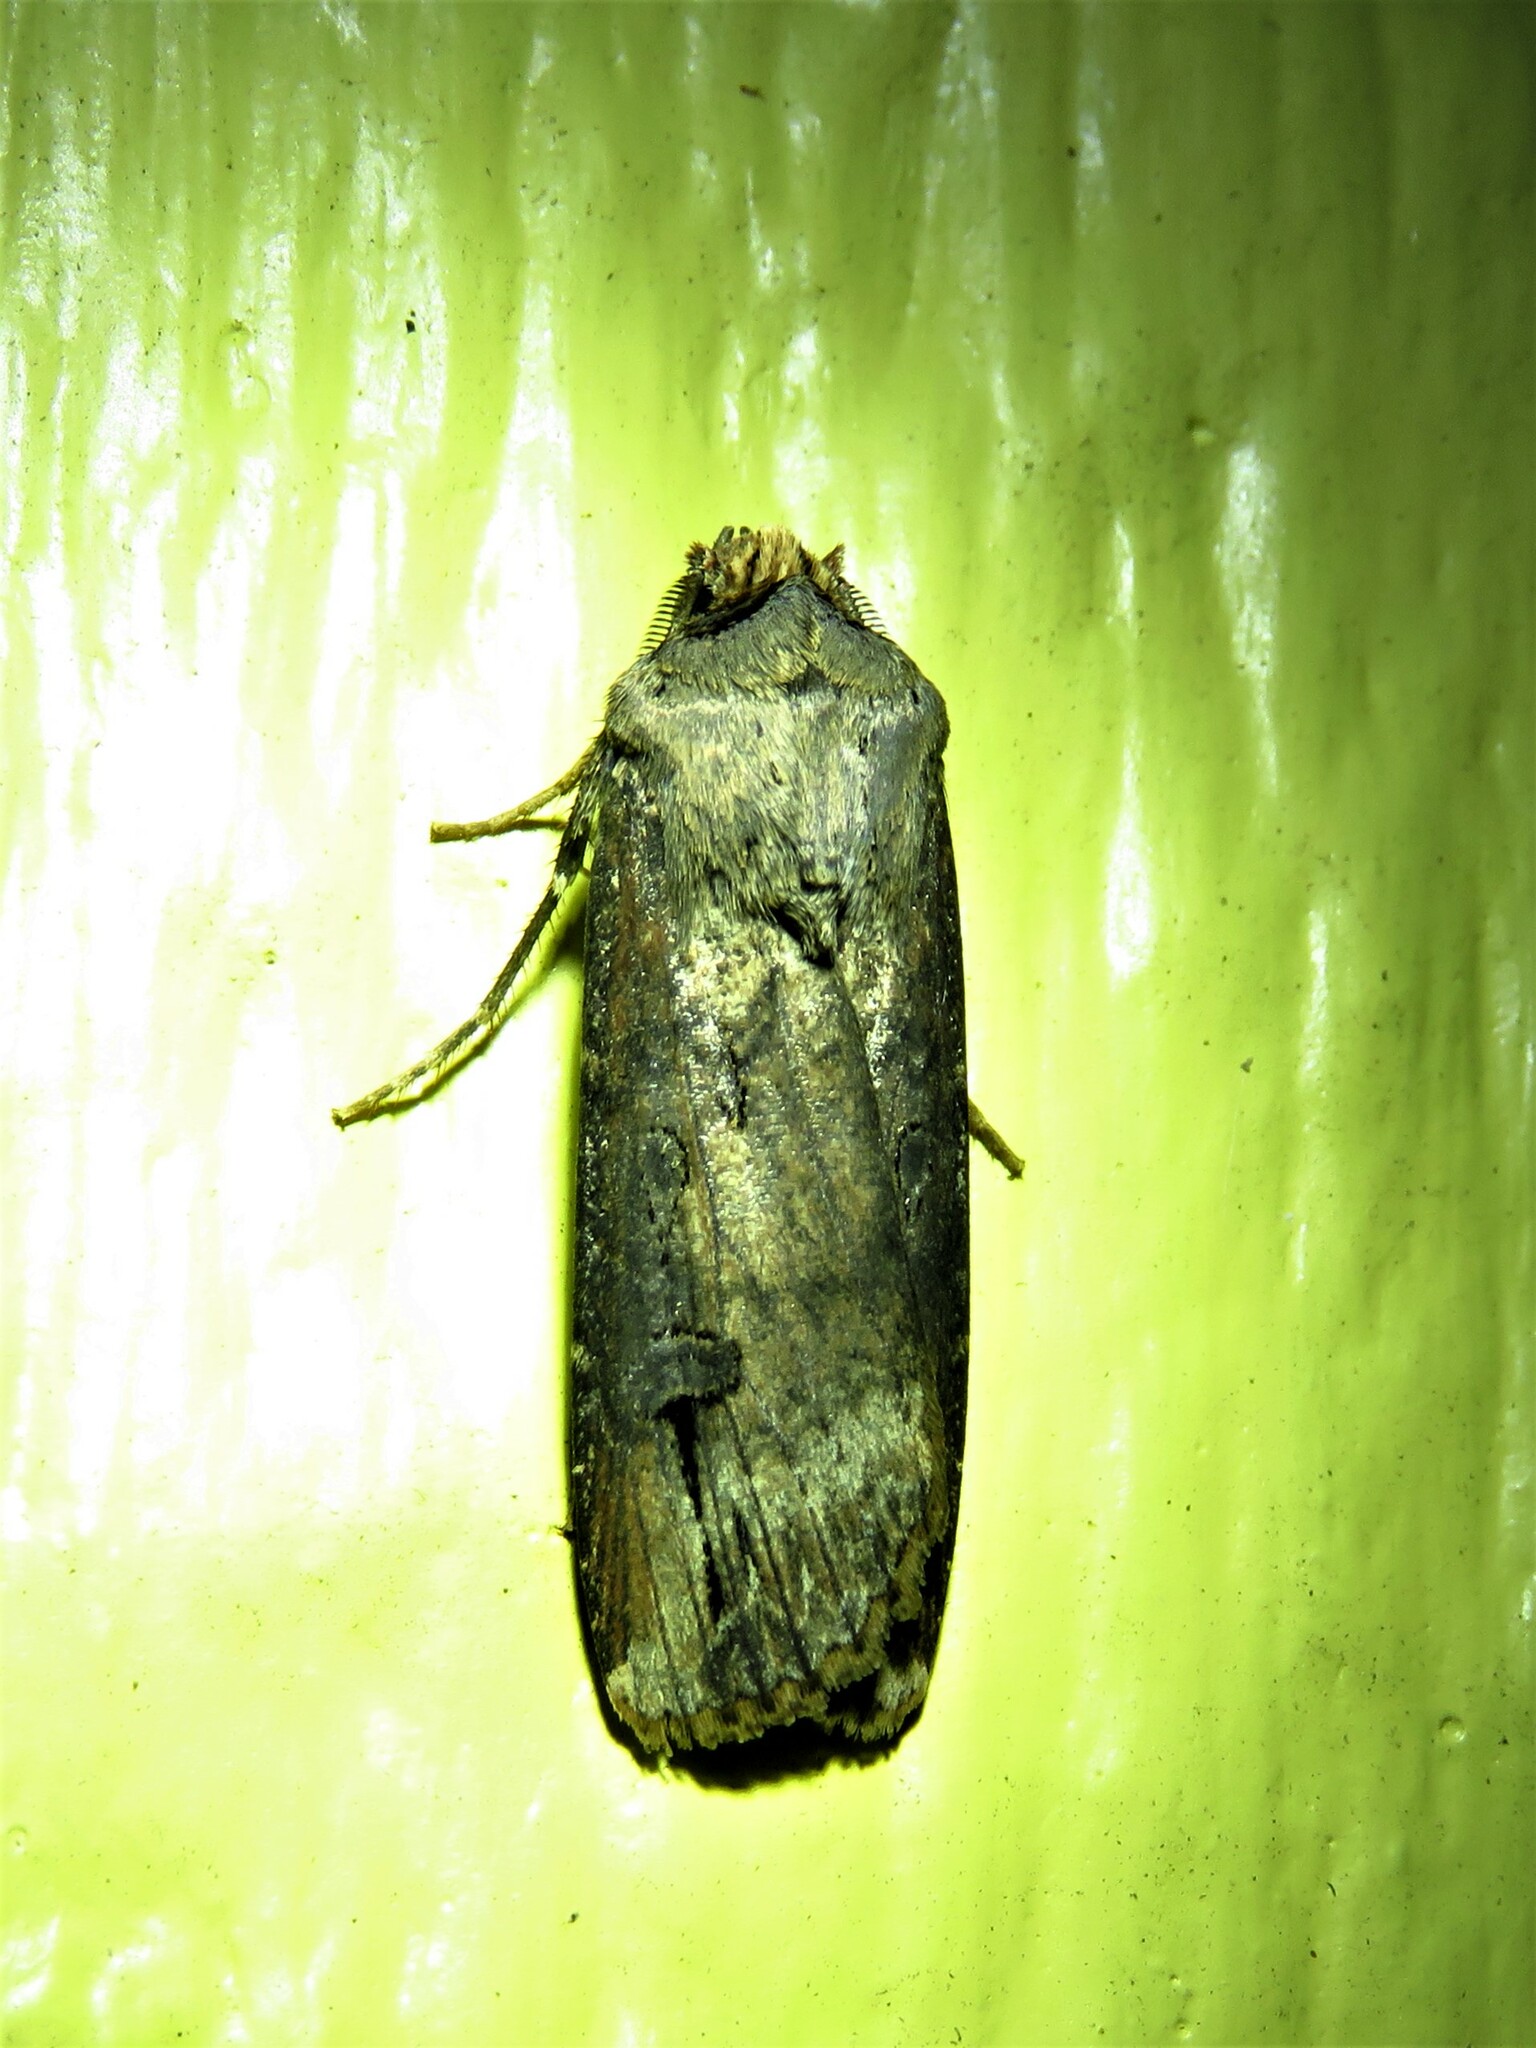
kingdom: Animalia
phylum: Arthropoda
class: Insecta
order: Lepidoptera
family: Noctuidae
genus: Agrotis
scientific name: Agrotis ipsilon
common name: Dark sword-grass
